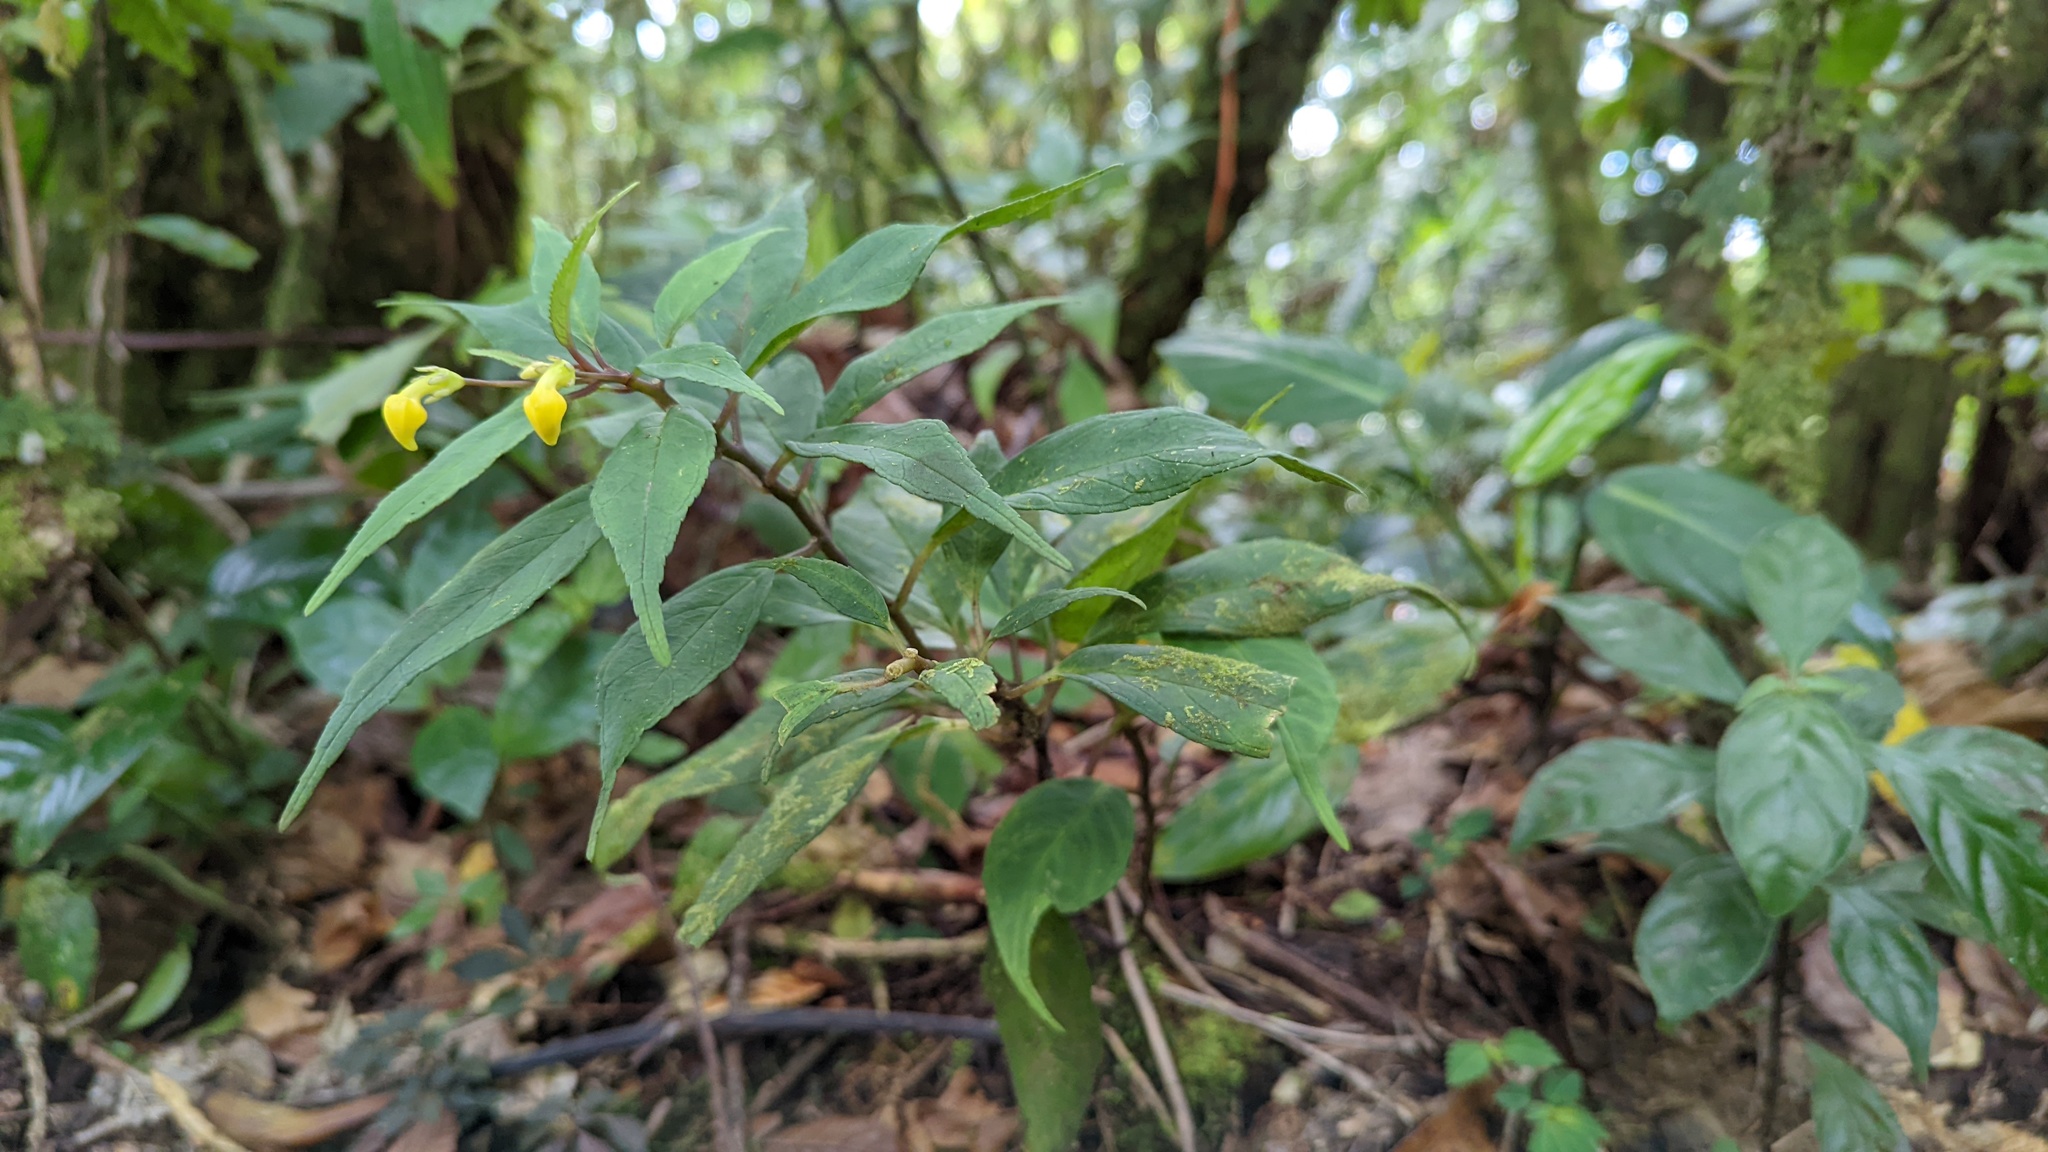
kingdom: Plantae
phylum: Tracheophyta
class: Magnoliopsida
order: Asterales
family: Campanulaceae
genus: Burmeistera
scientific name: Burmeistera parviflora
